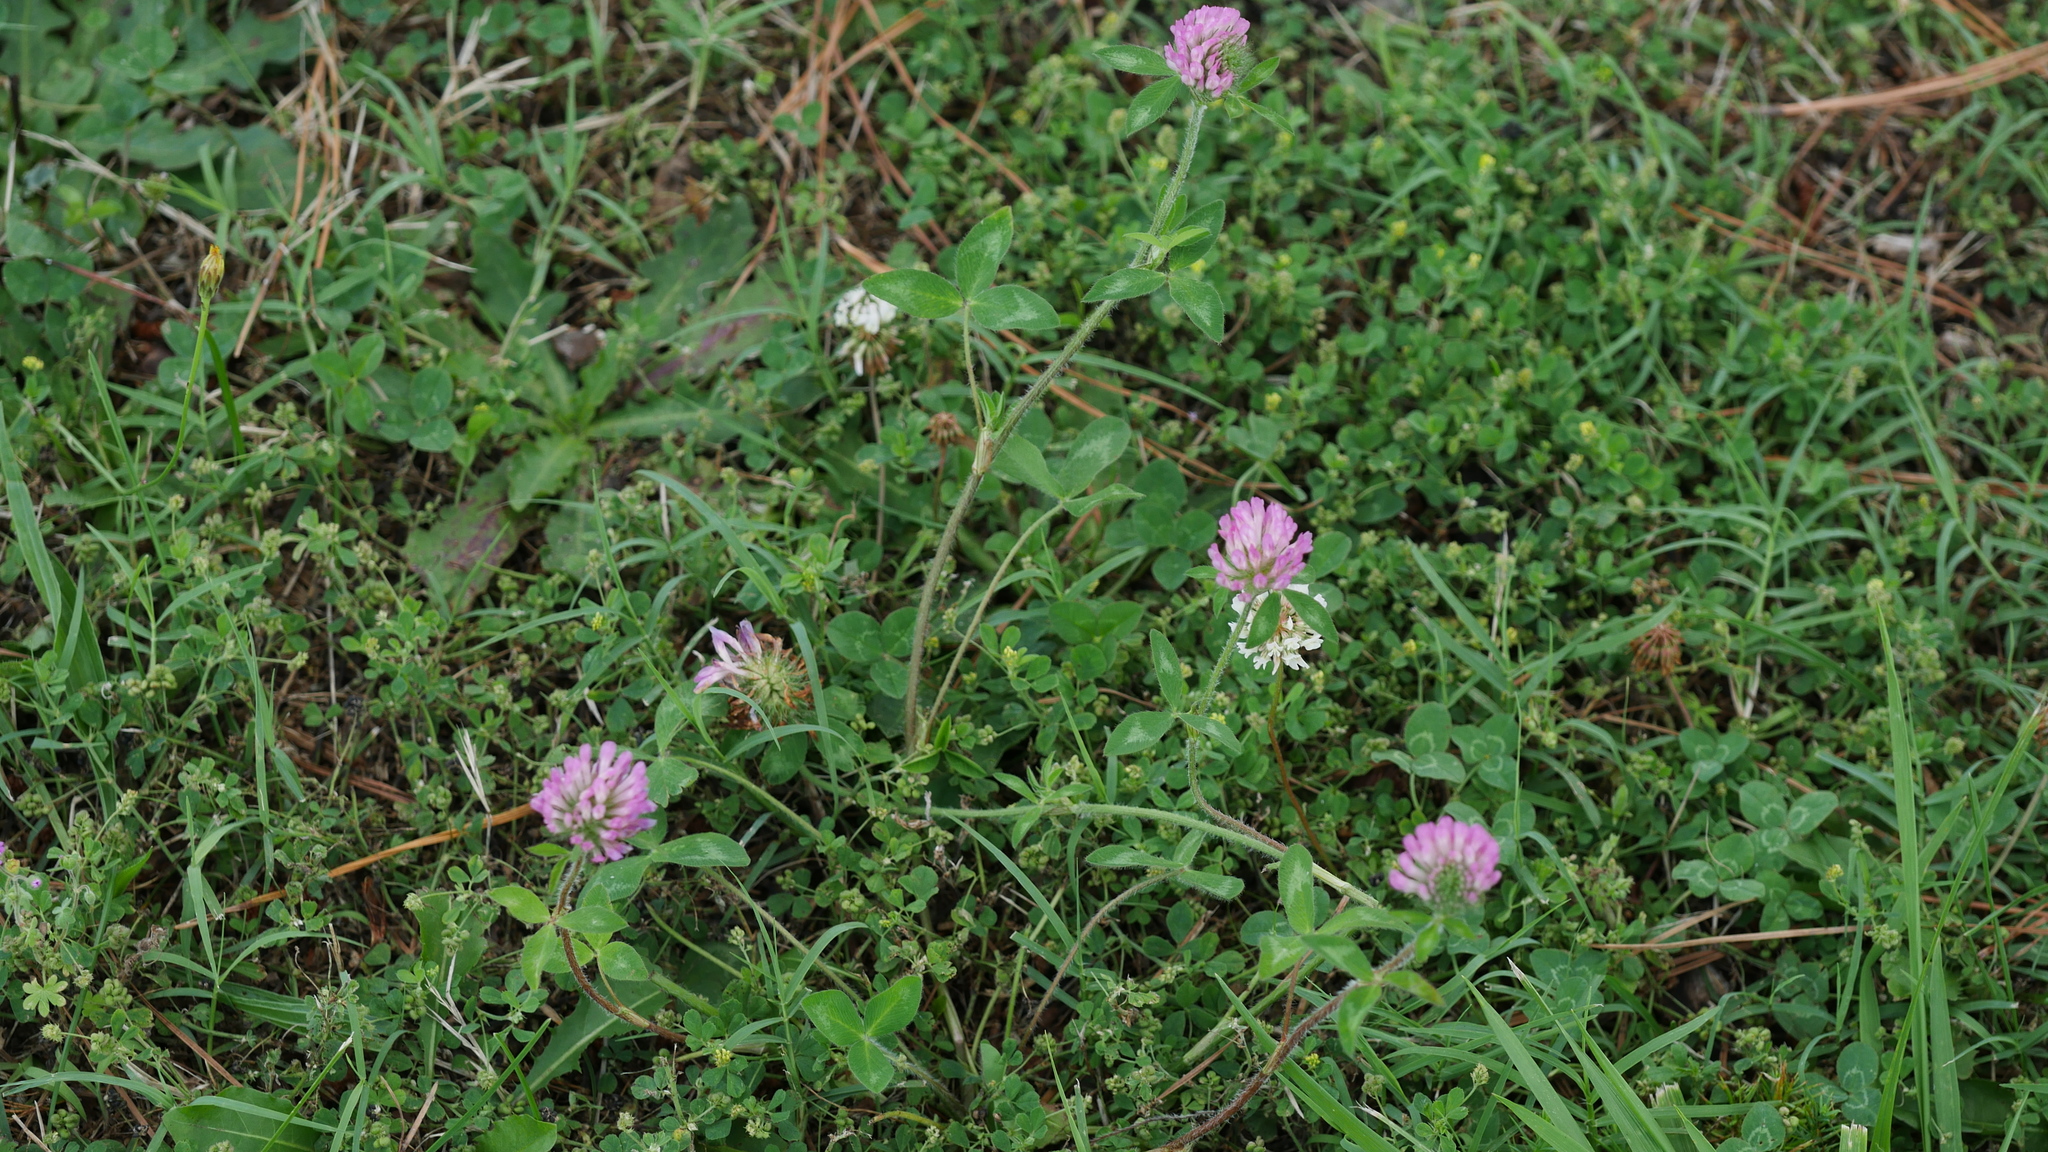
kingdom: Plantae
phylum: Tracheophyta
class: Magnoliopsida
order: Fabales
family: Fabaceae
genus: Trifolium
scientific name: Trifolium pratense
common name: Red clover
